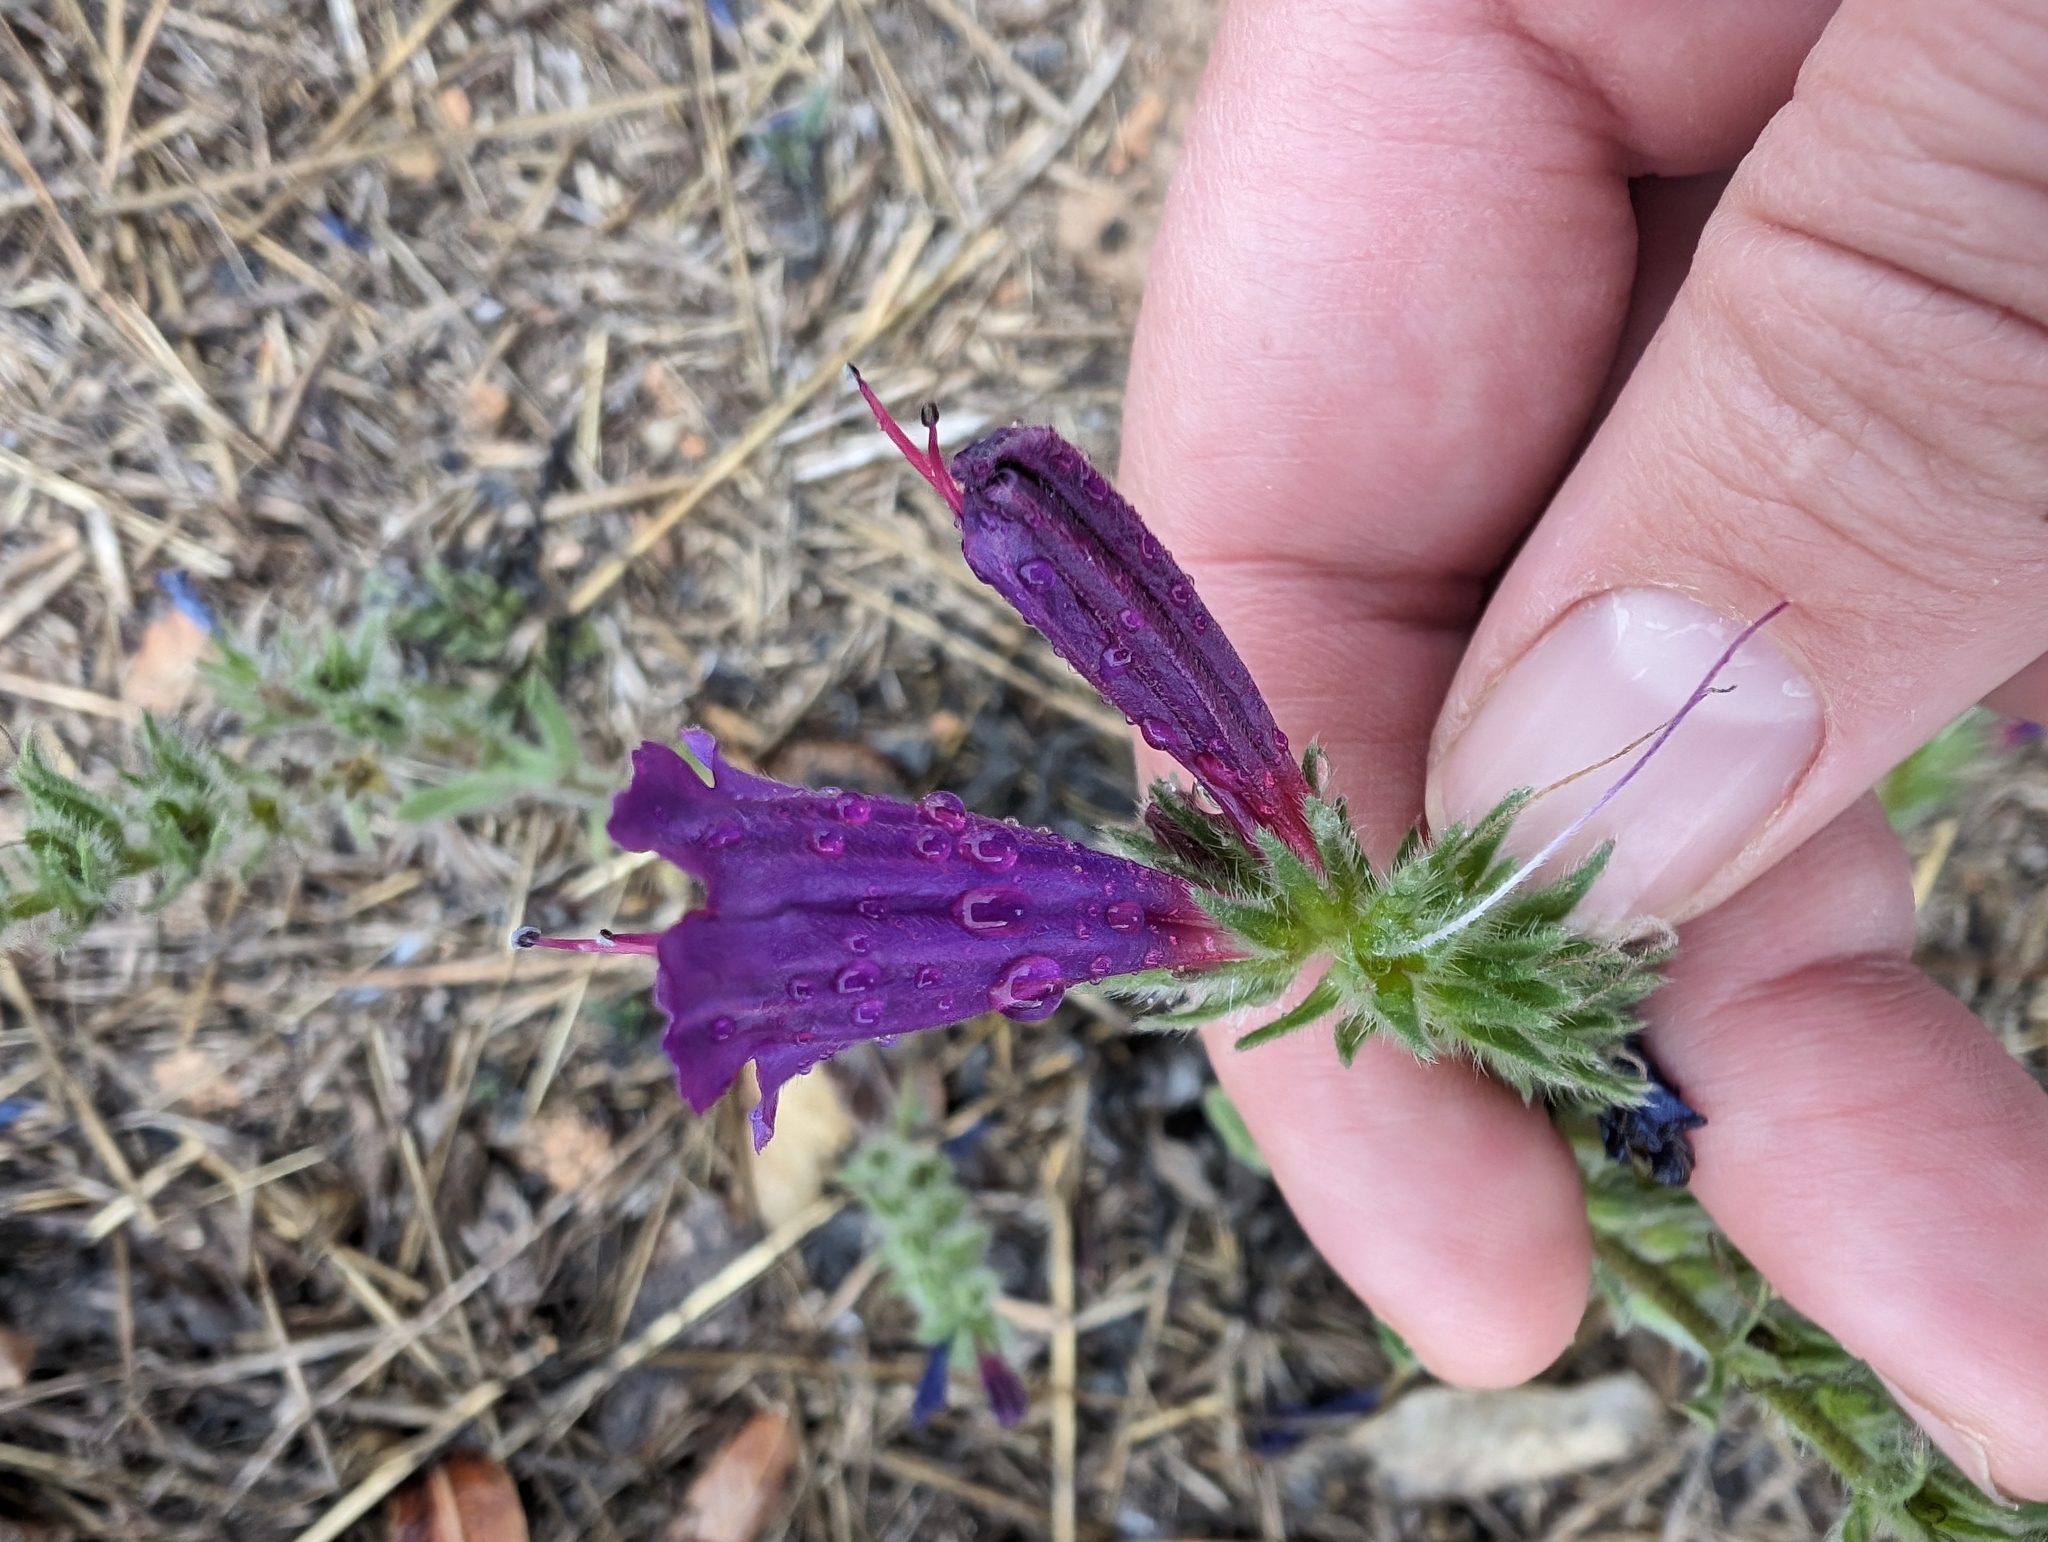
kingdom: Plantae
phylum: Tracheophyta
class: Magnoliopsida
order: Boraginales
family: Boraginaceae
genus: Echium
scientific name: Echium sabulicola
